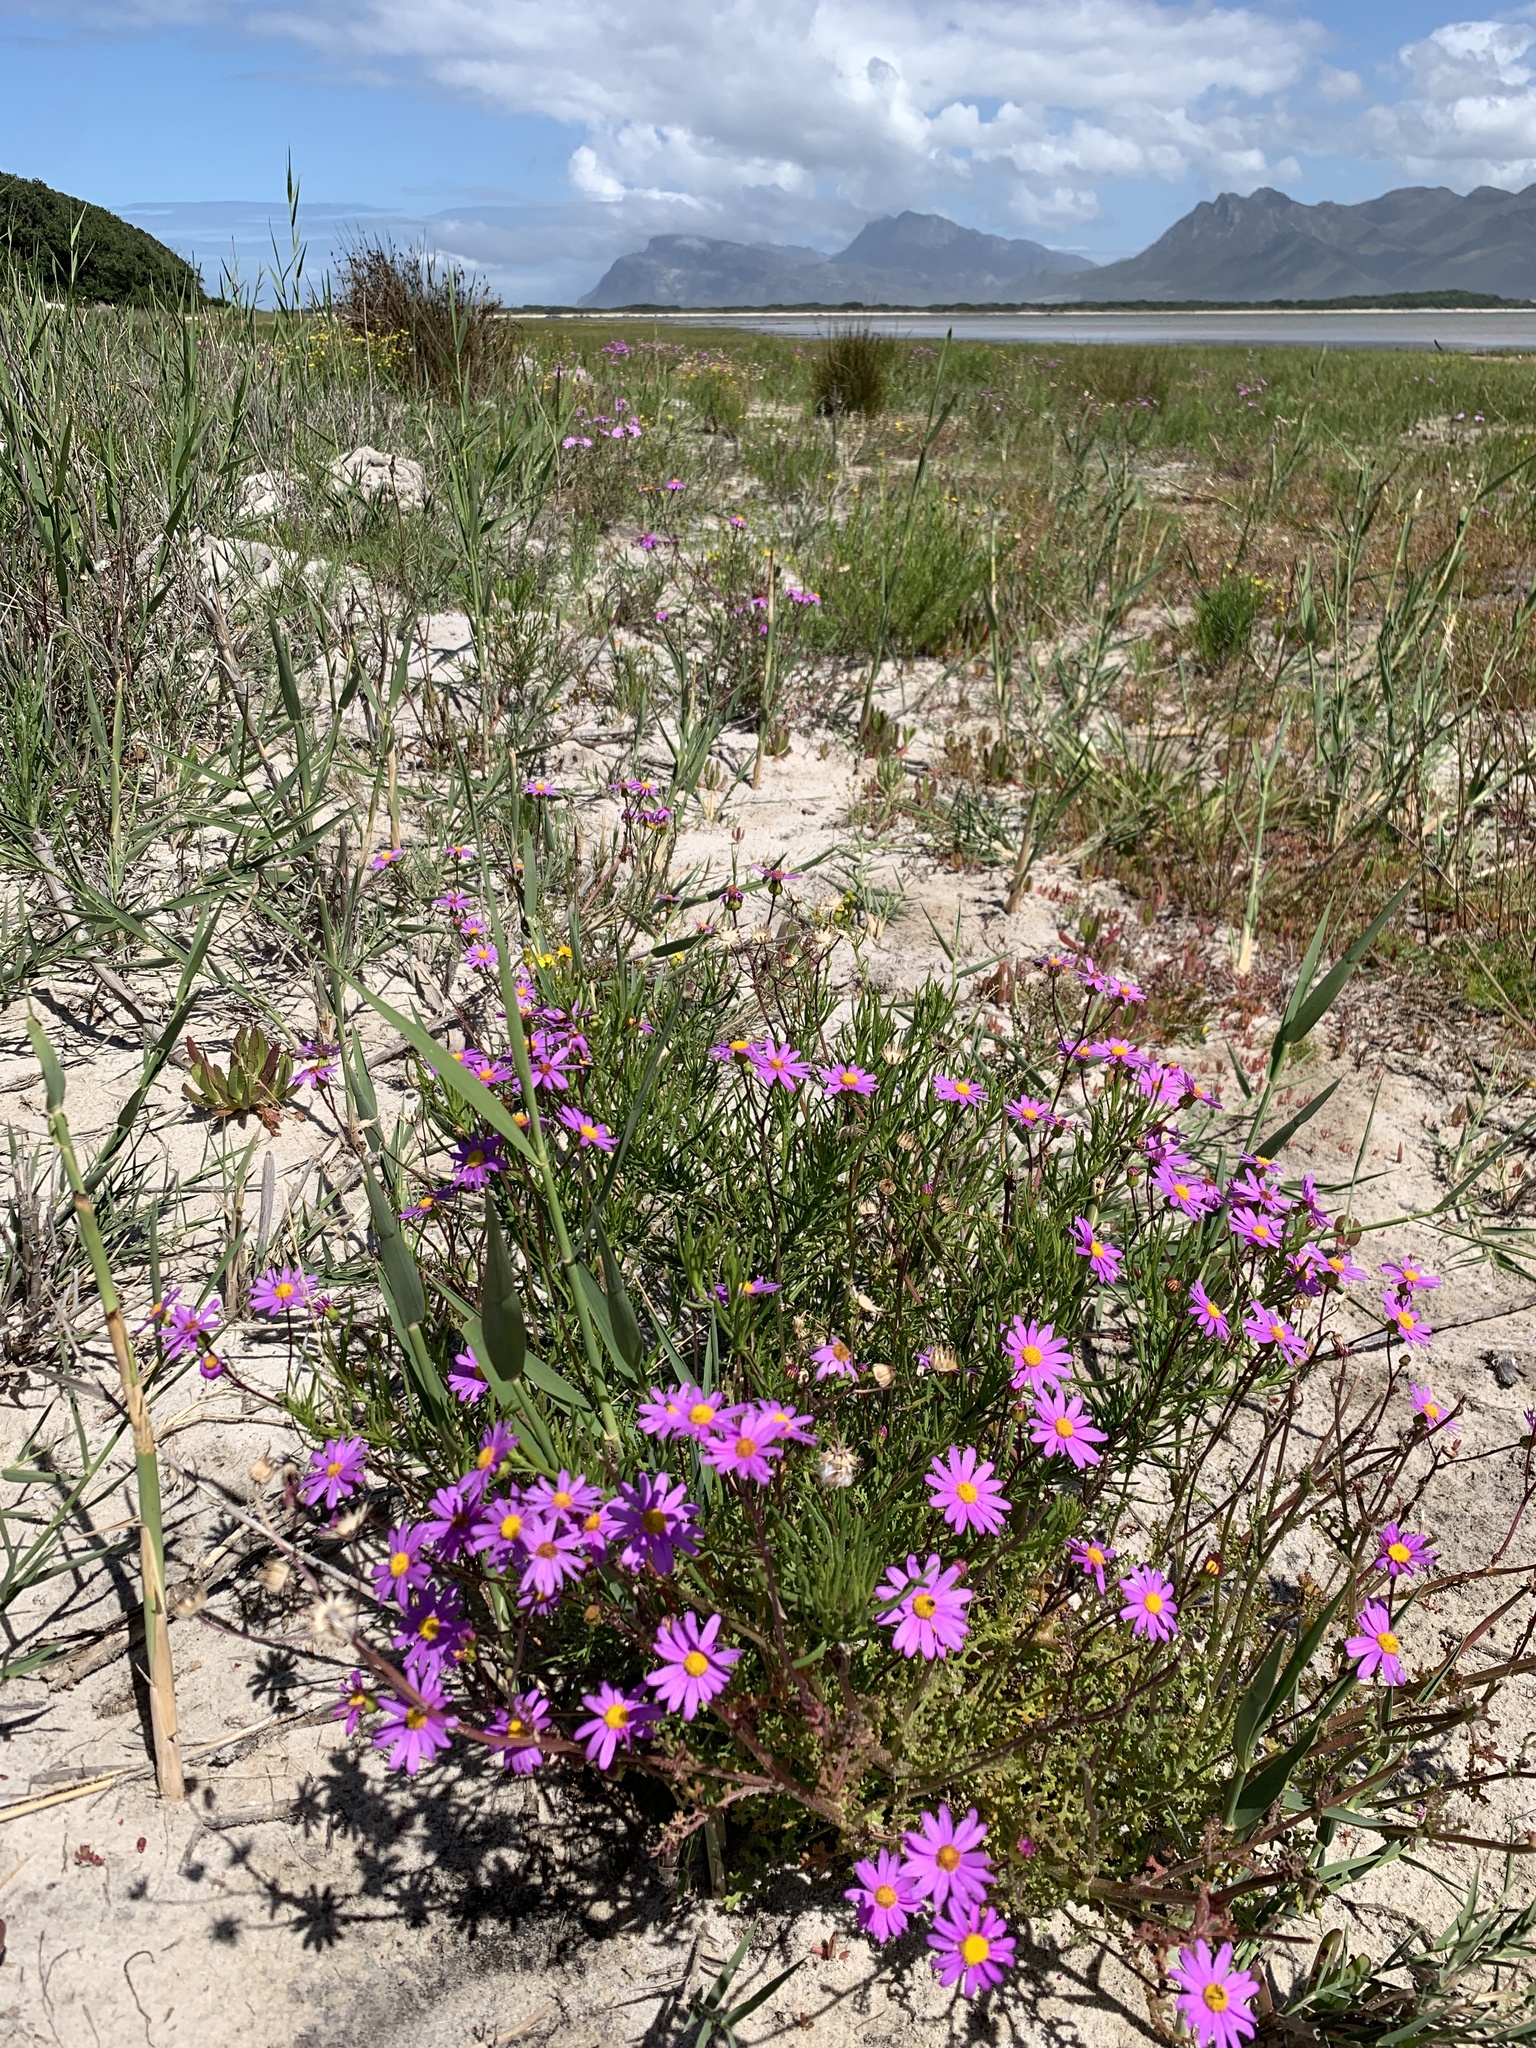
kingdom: Plantae
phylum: Tracheophyta
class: Magnoliopsida
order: Asterales
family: Asteraceae
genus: Senecio
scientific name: Senecio elegans
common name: Purple groundsel
